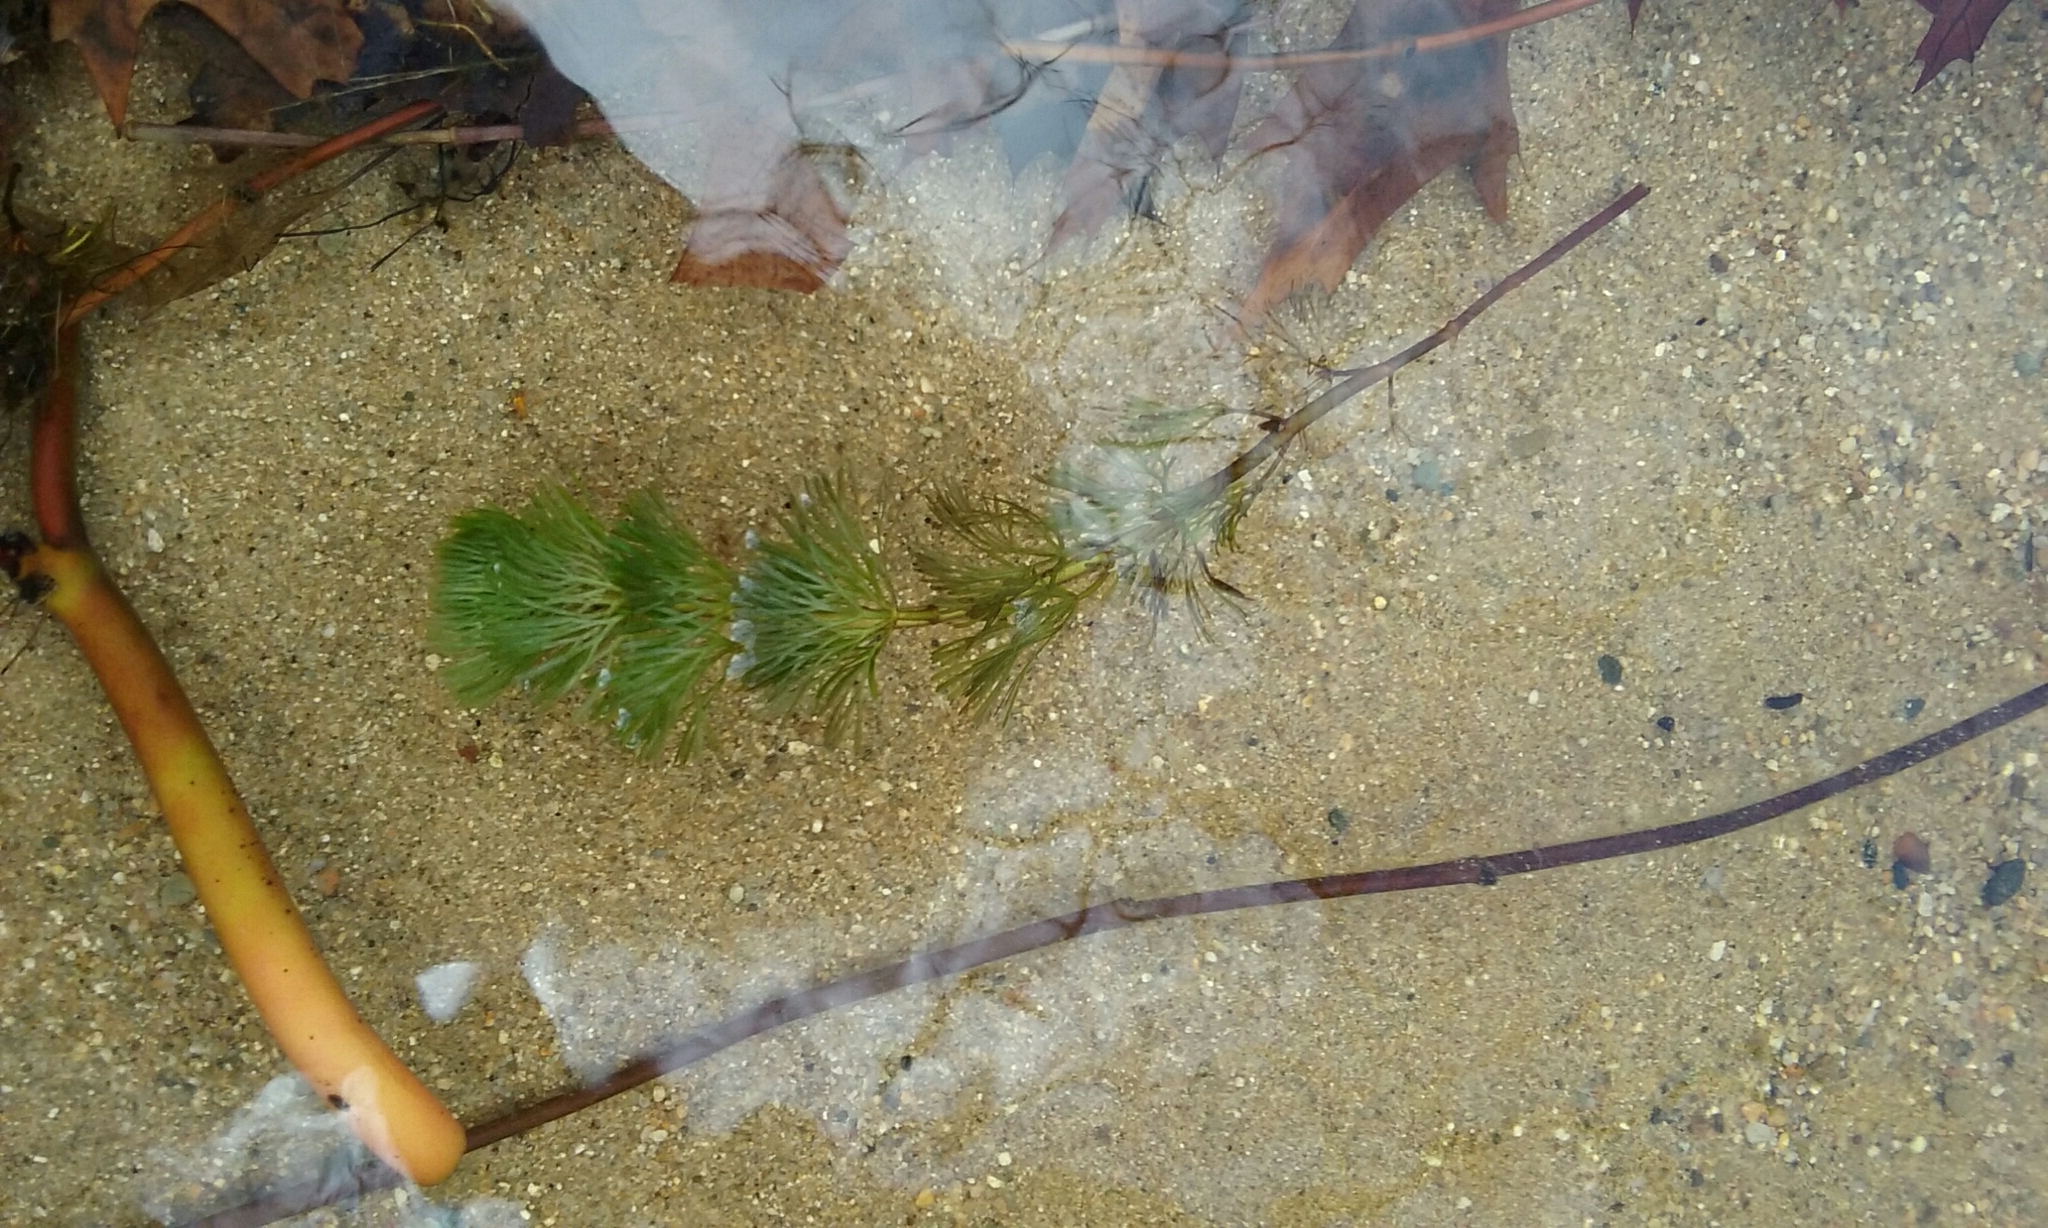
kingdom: Plantae
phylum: Tracheophyta
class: Magnoliopsida
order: Nymphaeales
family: Cabombaceae
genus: Cabomba
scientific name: Cabomba caroliniana
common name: Fanwort
